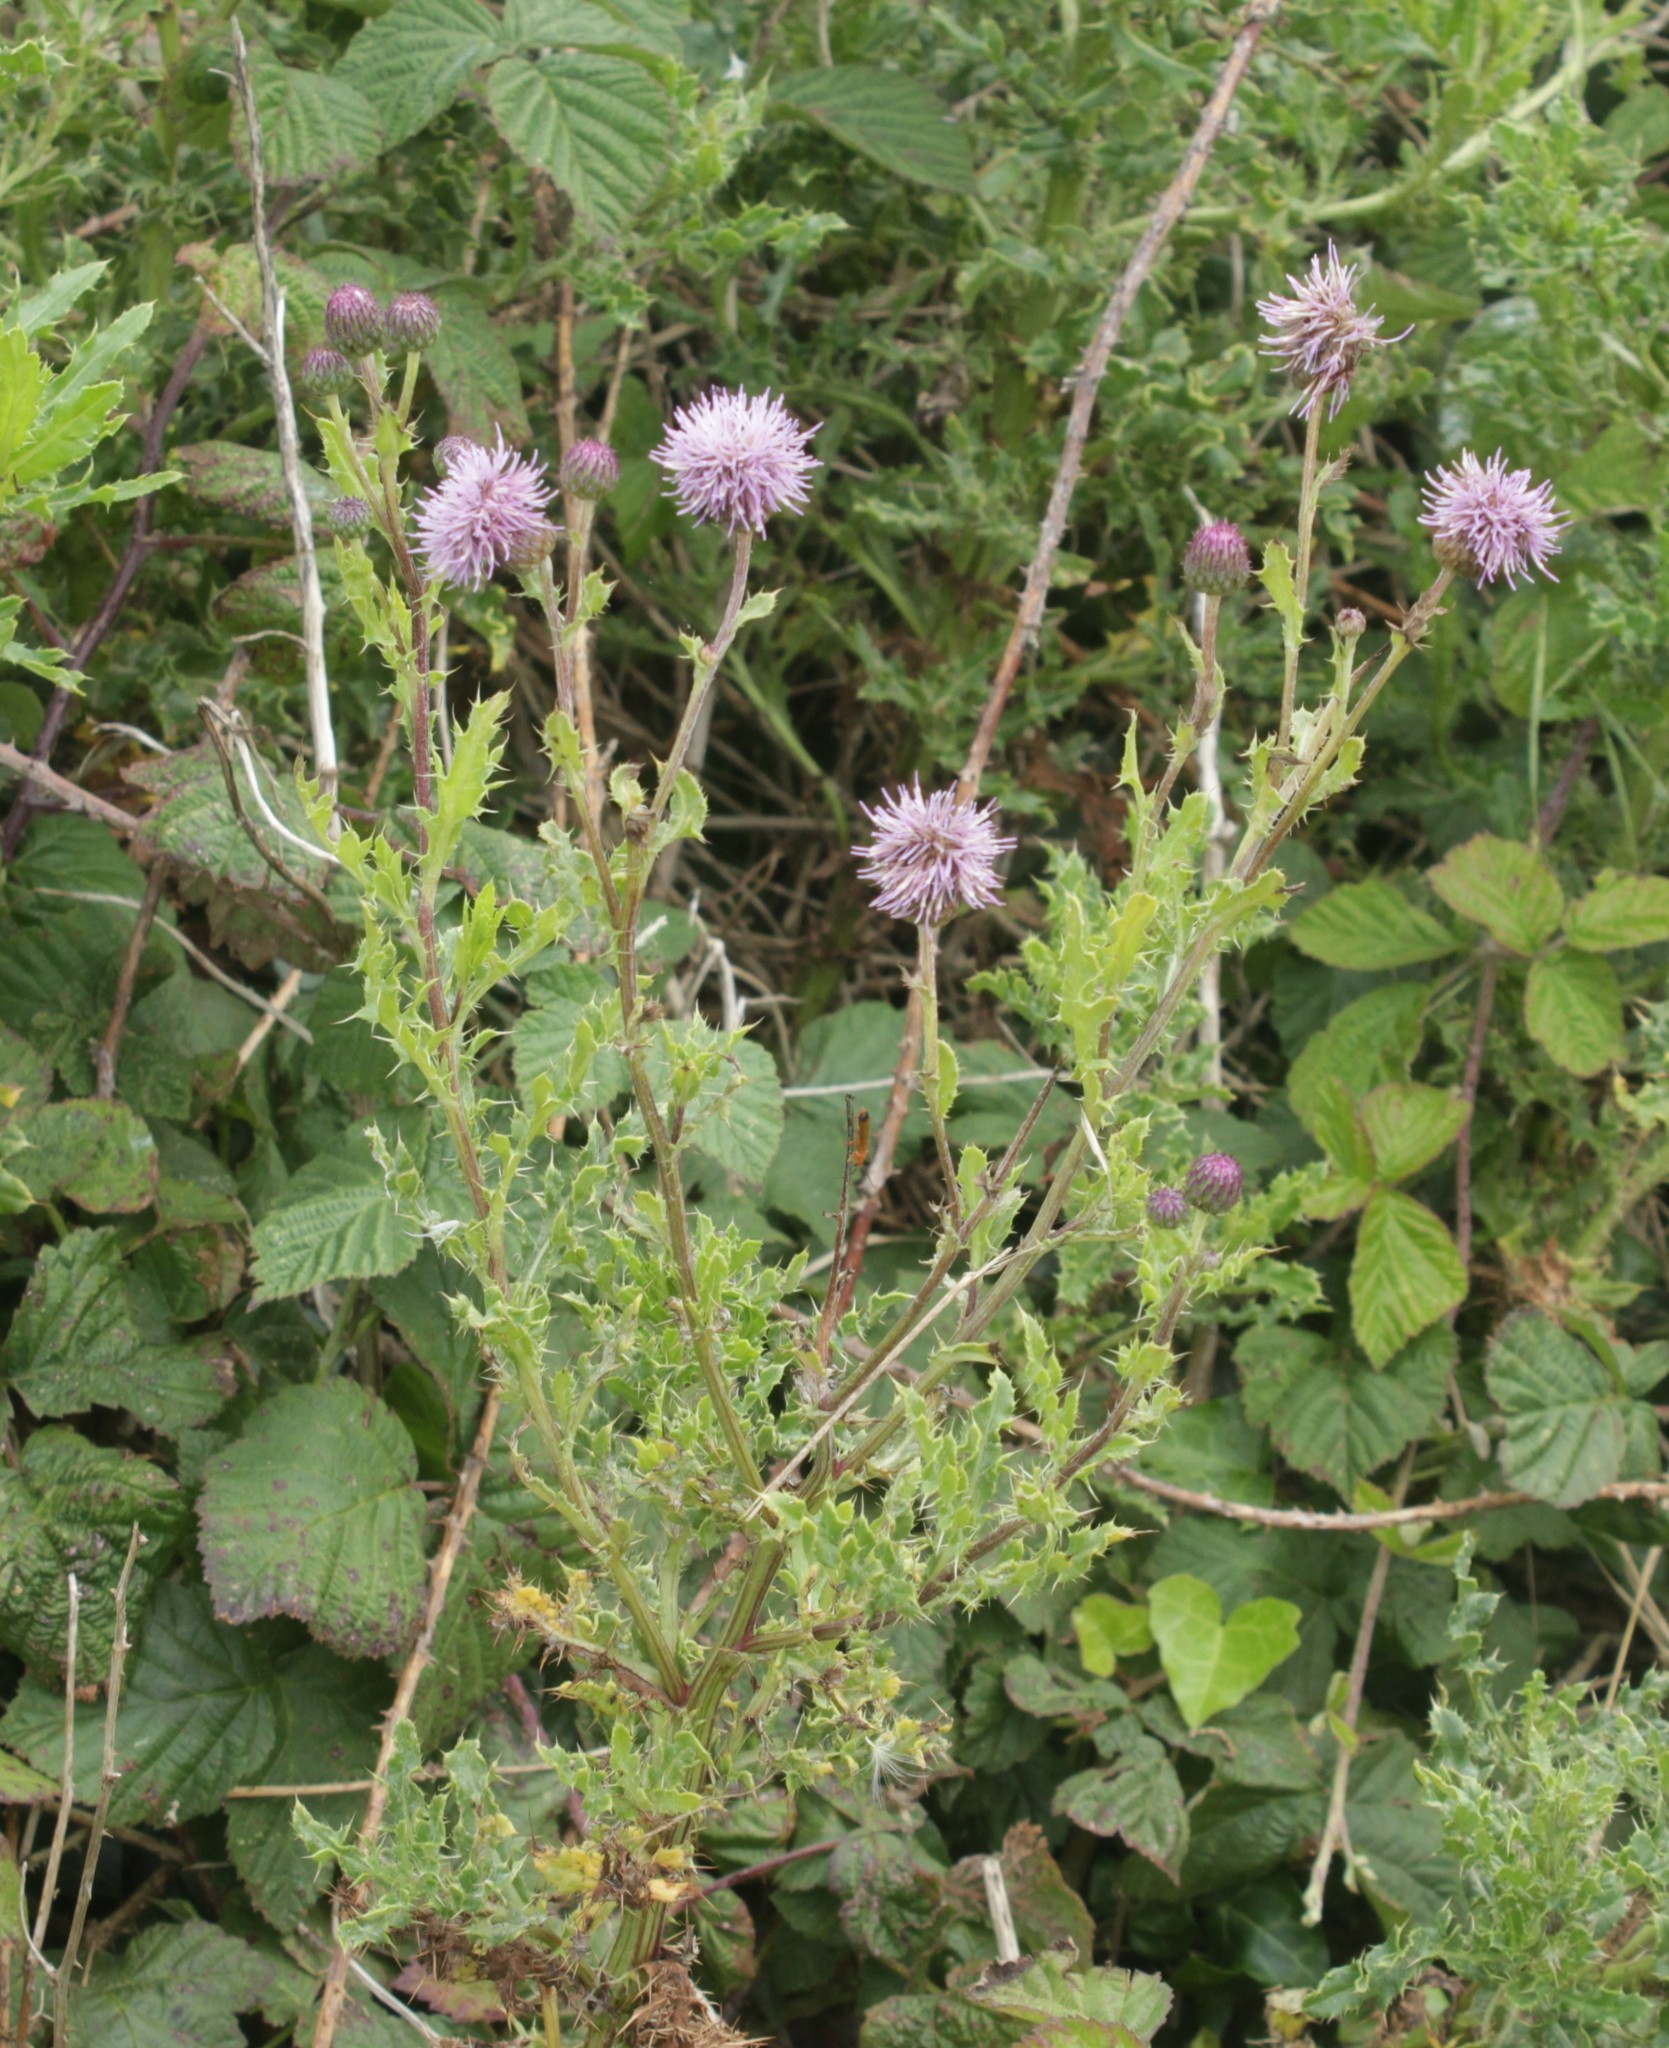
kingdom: Plantae
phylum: Tracheophyta
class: Magnoliopsida
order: Asterales
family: Asteraceae
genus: Cirsium
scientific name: Cirsium arvense
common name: Creeping thistle
